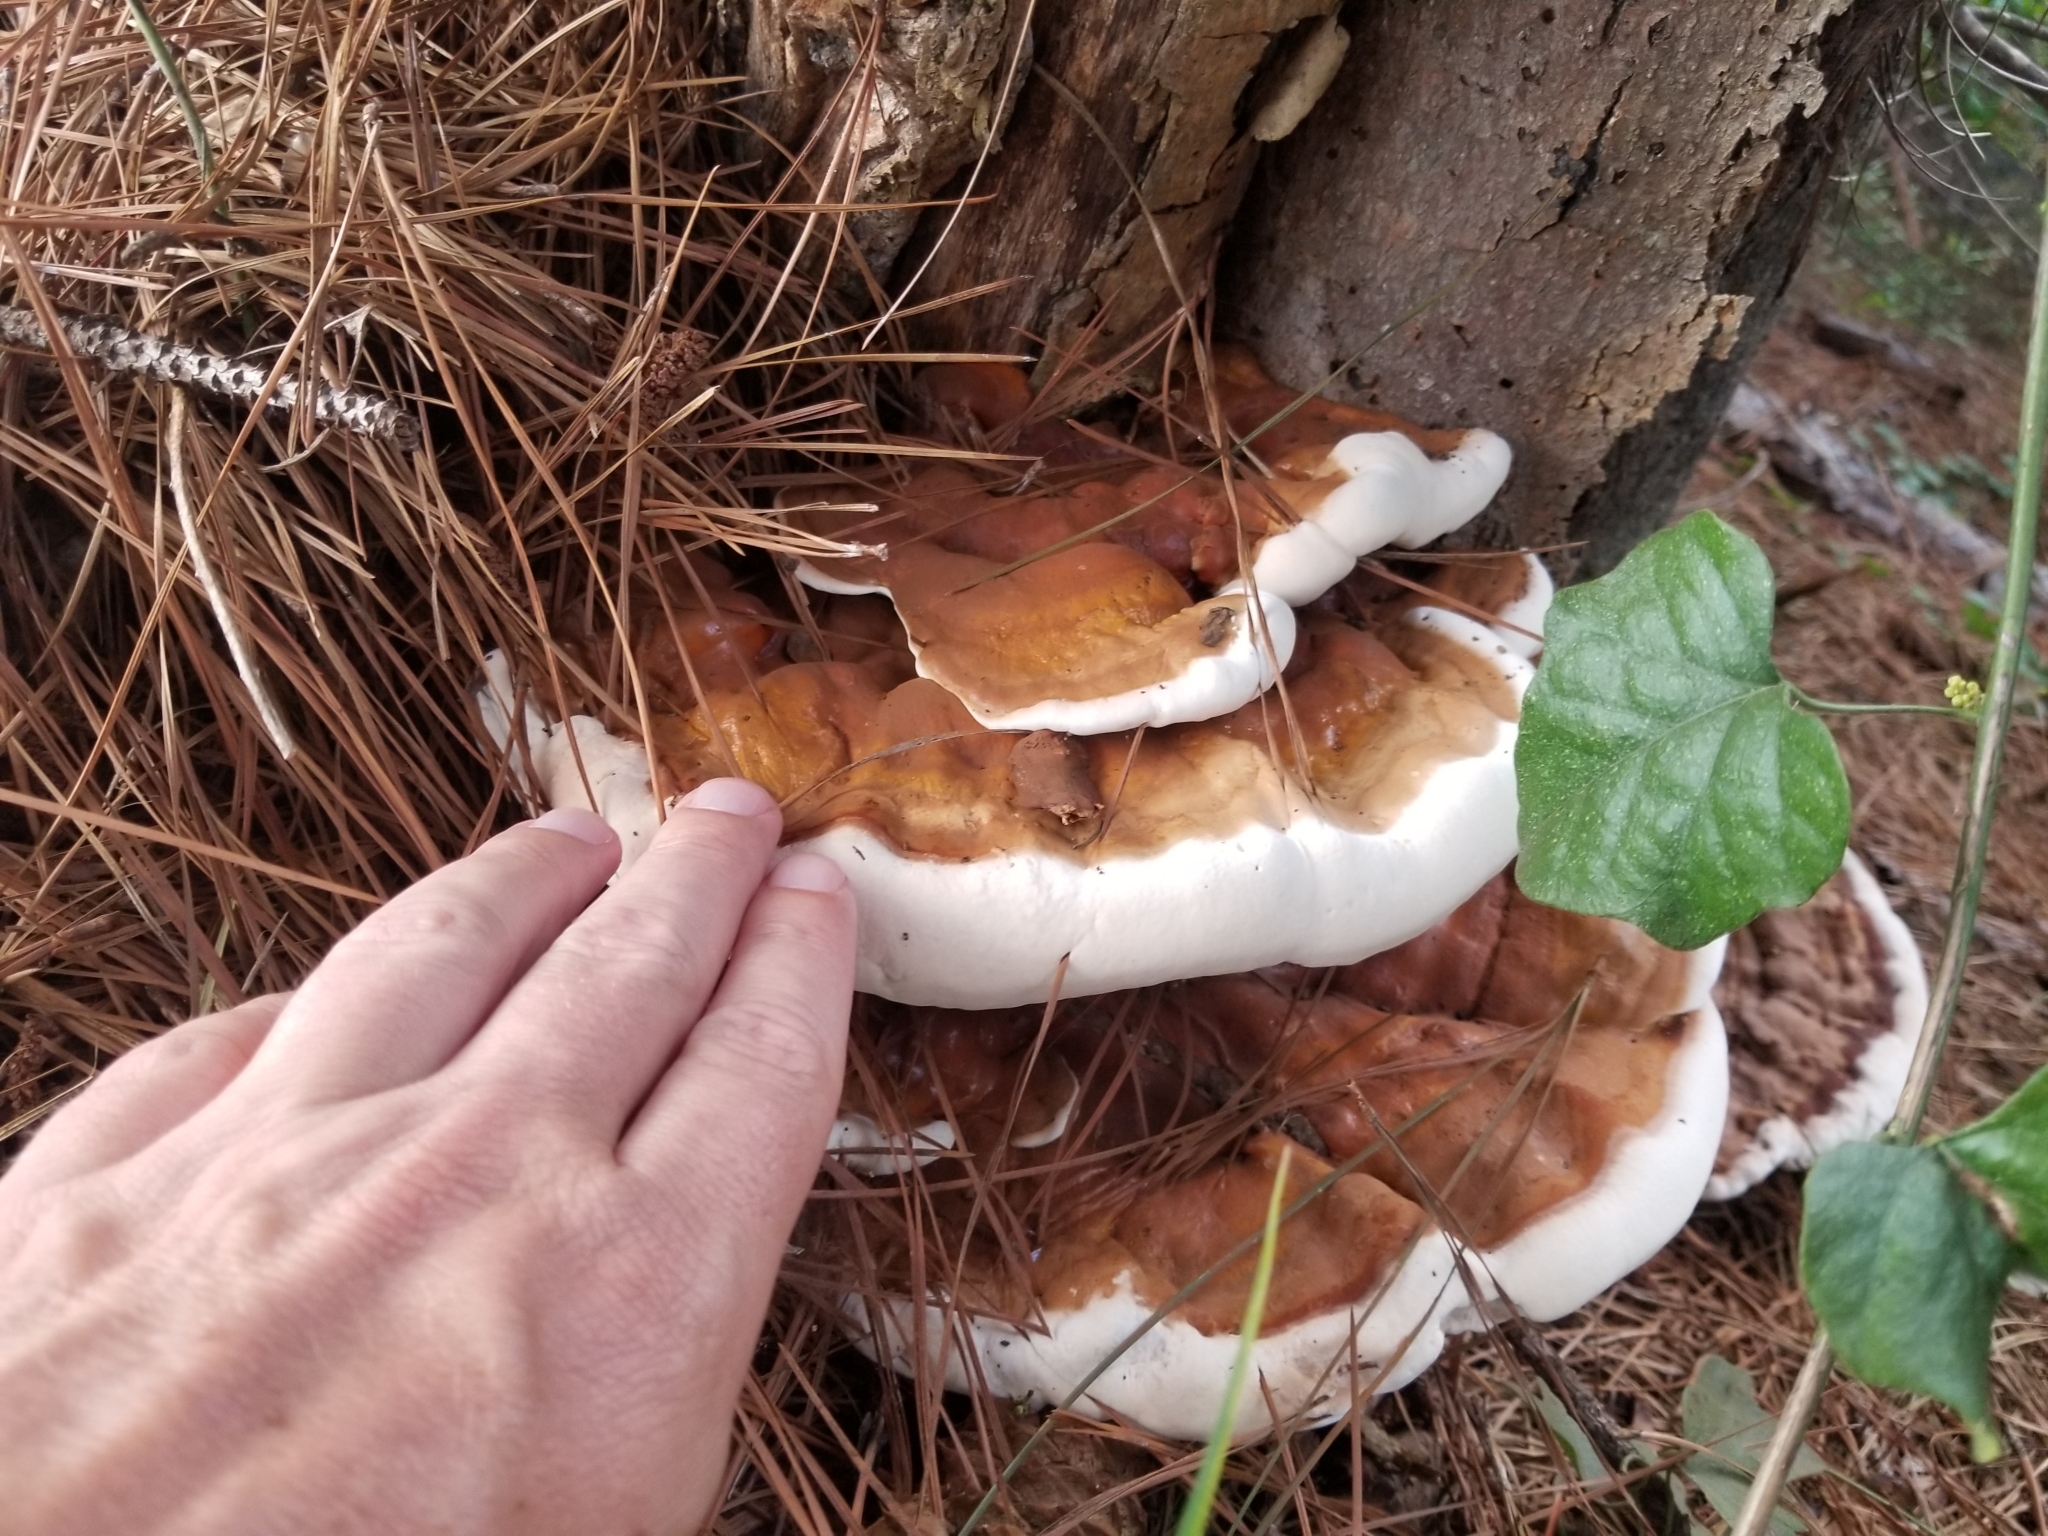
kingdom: Fungi
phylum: Basidiomycota
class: Agaricomycetes
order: Polyporales
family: Polyporaceae
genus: Ganoderma
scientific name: Ganoderma resinaceum
